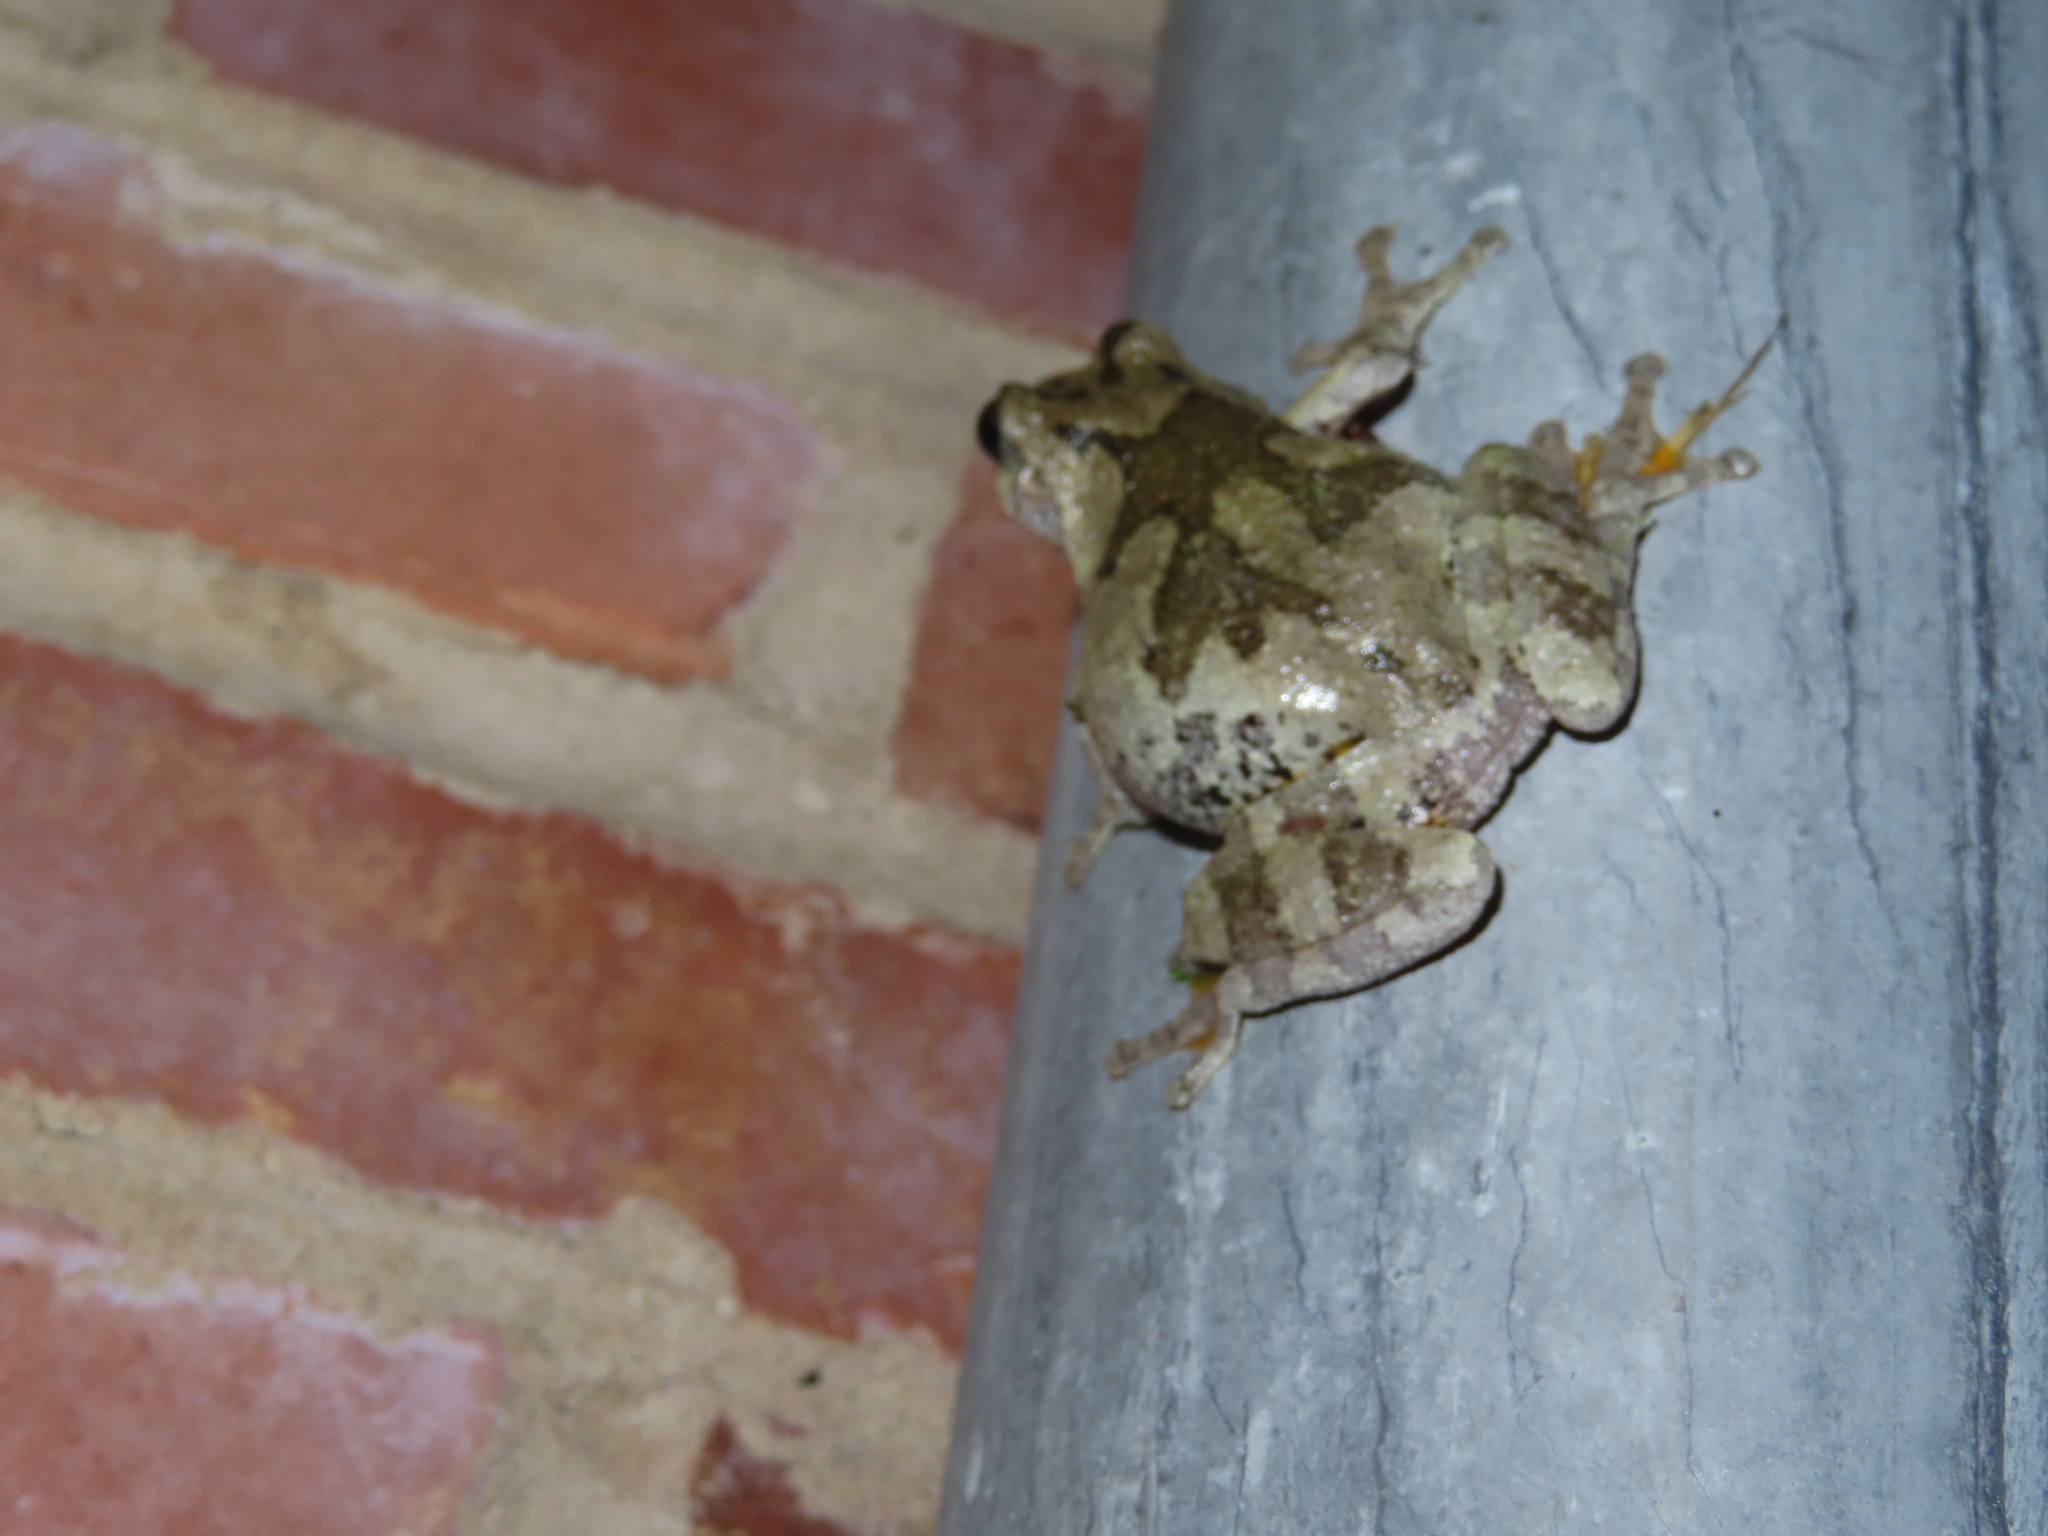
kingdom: Animalia
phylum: Chordata
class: Amphibia
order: Anura
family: Hylidae
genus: Dryophytes
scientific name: Dryophytes chrysoscelis
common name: Cope's gray treefrog
